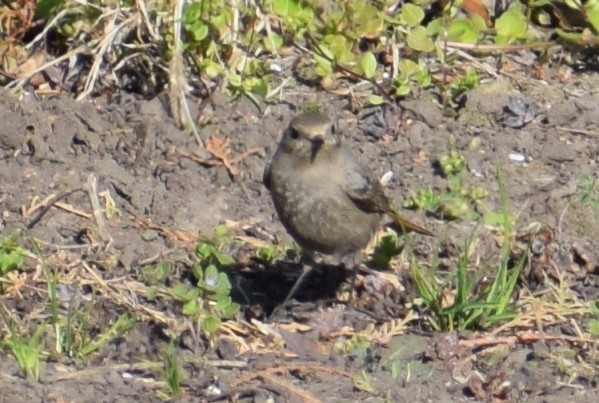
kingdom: Animalia
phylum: Chordata
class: Aves
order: Passeriformes
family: Muscicapidae
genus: Phoenicurus
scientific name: Phoenicurus ochruros
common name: Black redstart
